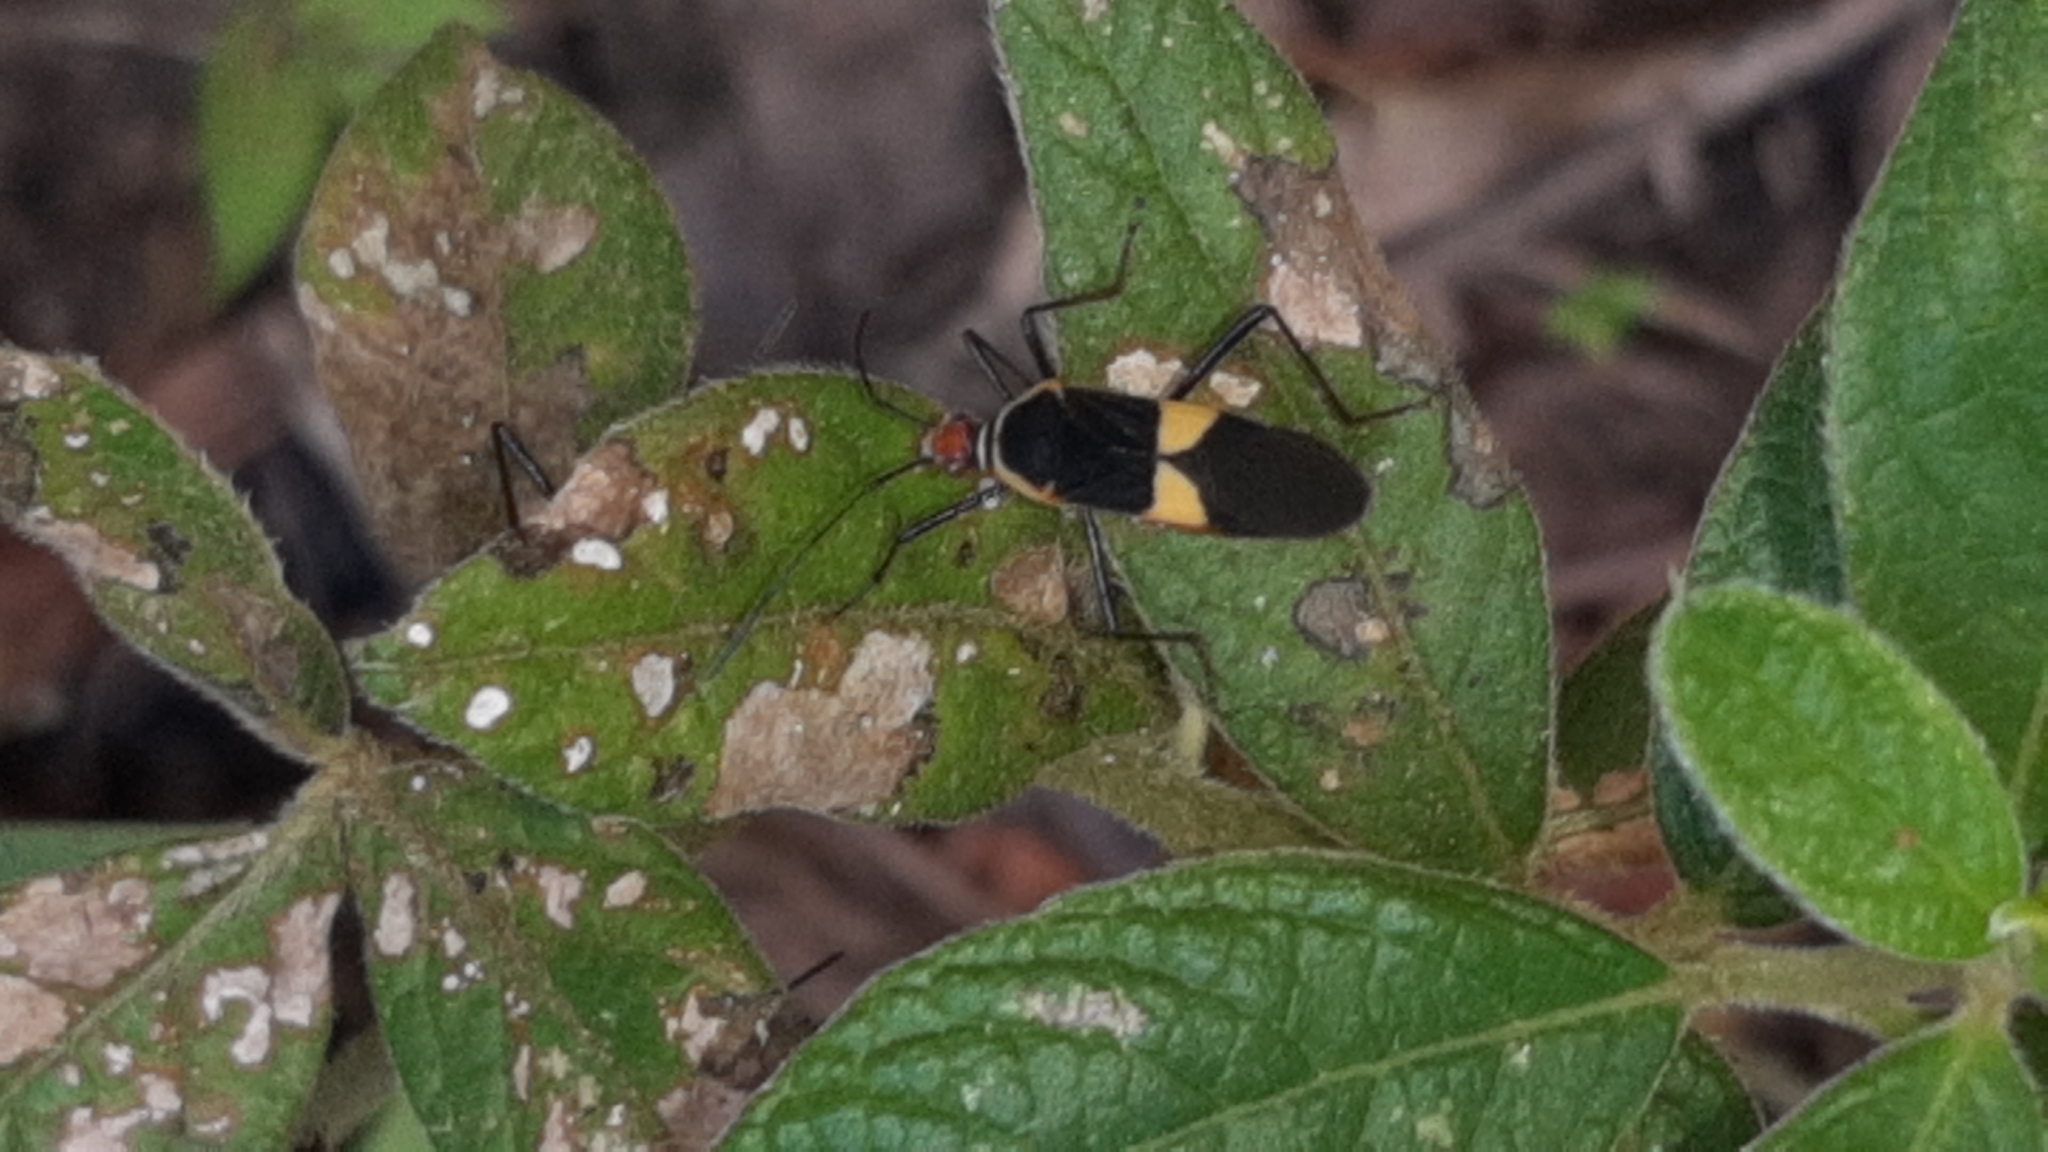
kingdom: Animalia
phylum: Arthropoda
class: Insecta
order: Hemiptera
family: Coreidae
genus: Hypselonotus
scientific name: Hypselonotus interruptus
